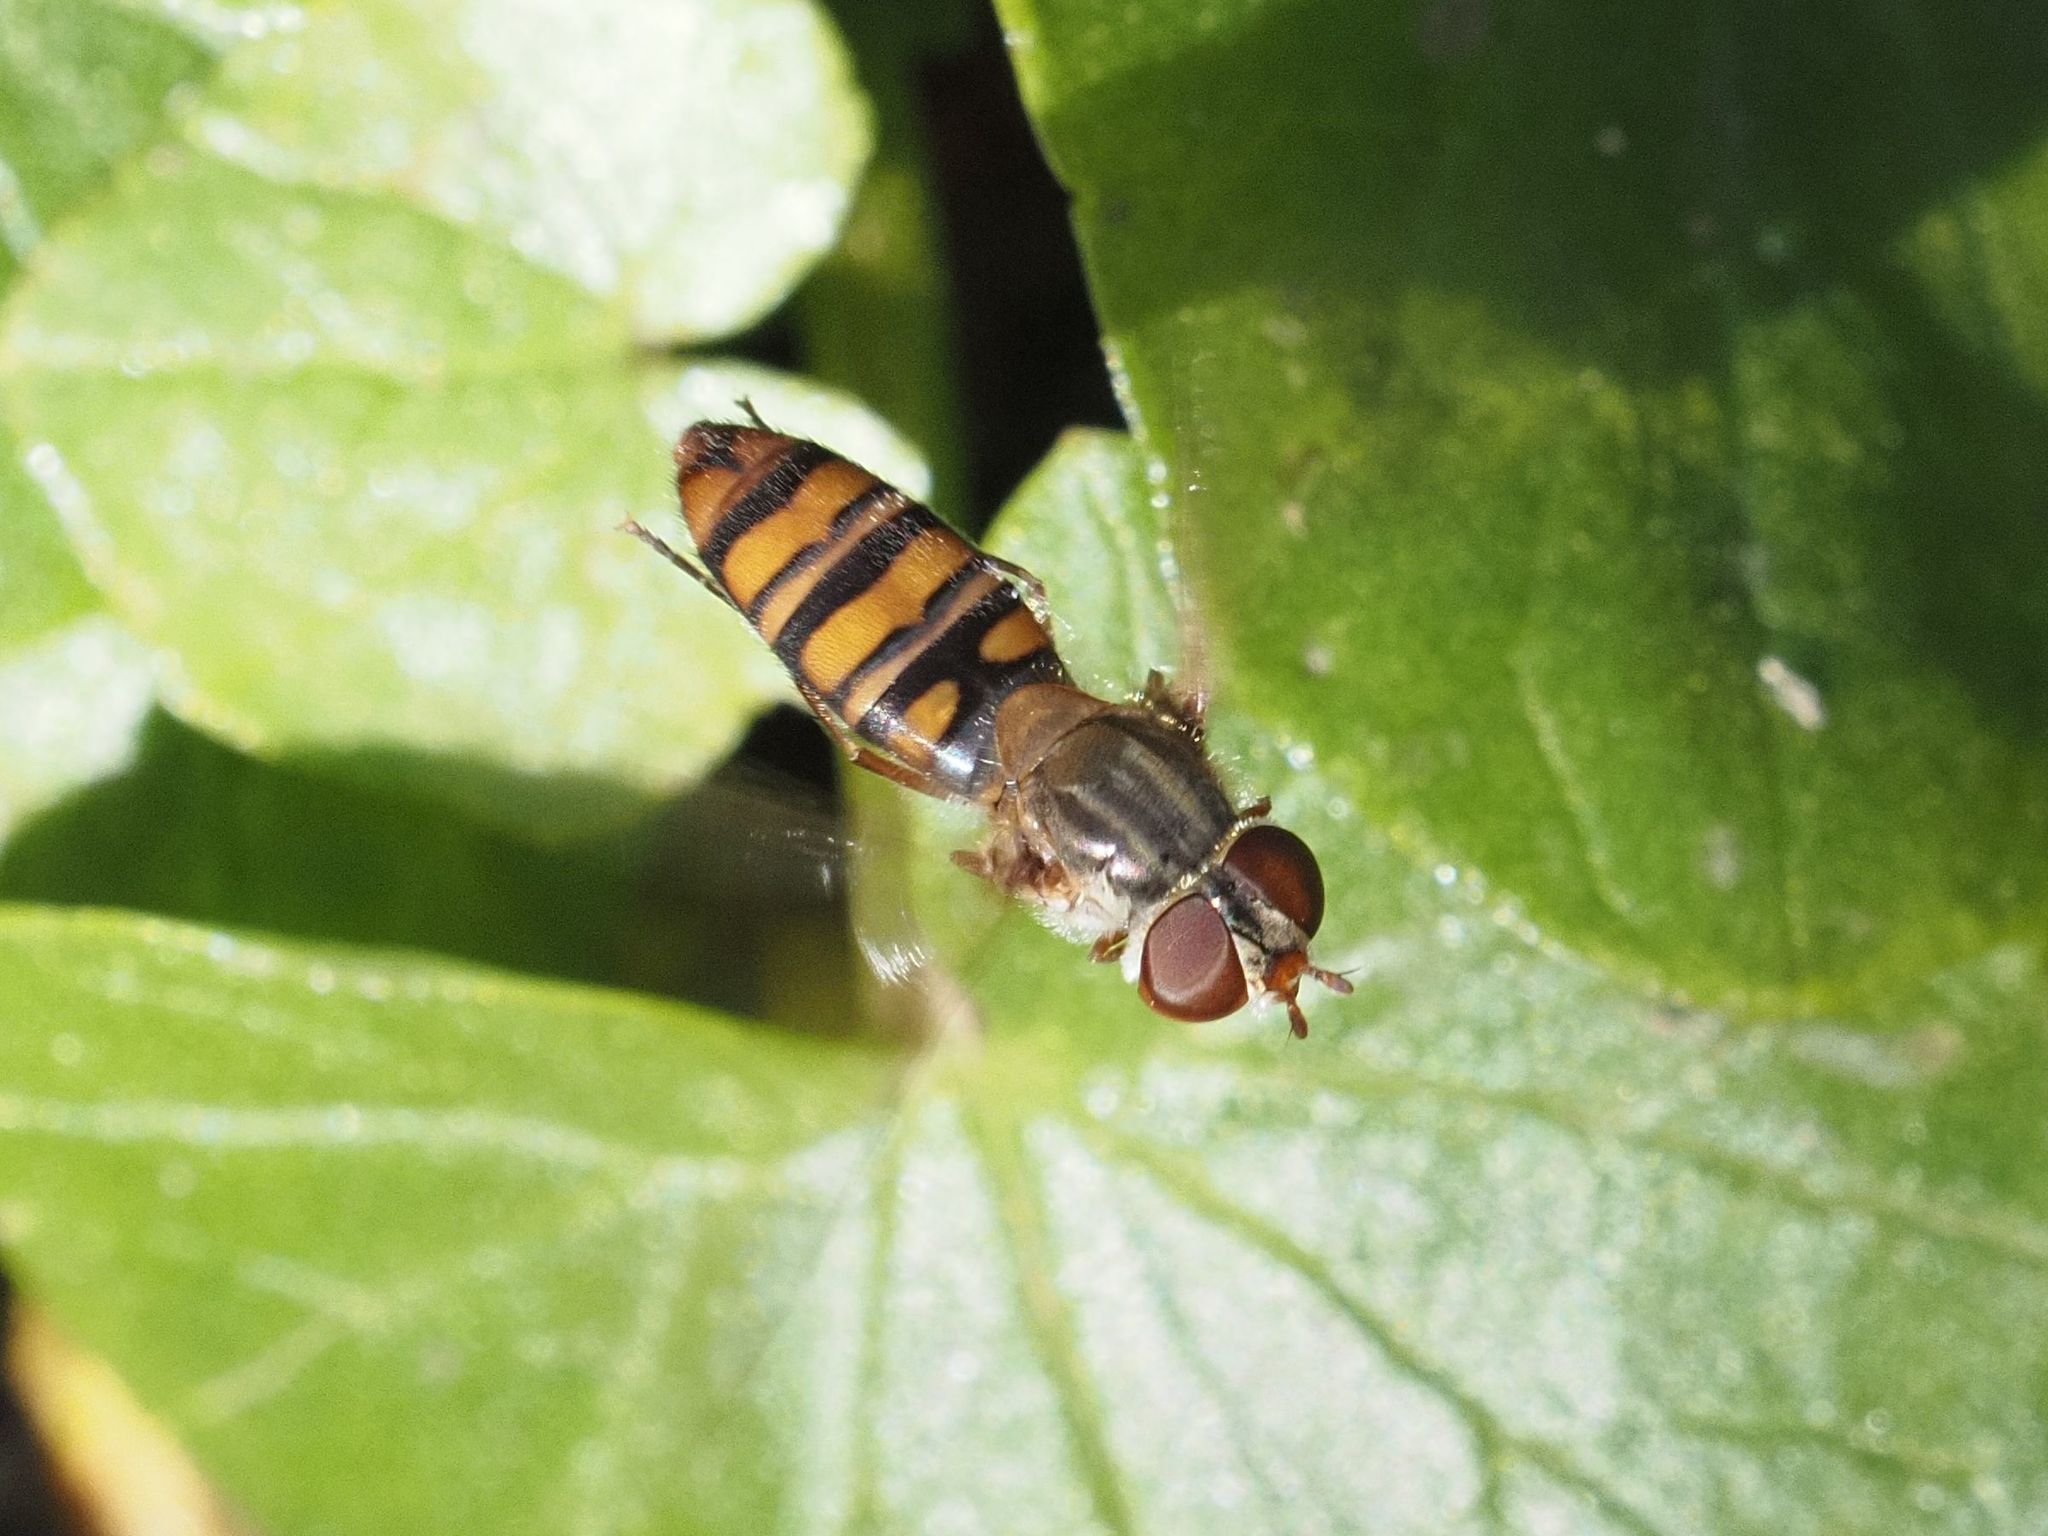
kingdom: Animalia
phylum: Arthropoda
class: Insecta
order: Diptera
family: Syrphidae
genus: Episyrphus
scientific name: Episyrphus balteatus
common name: Marmalade hoverfly
